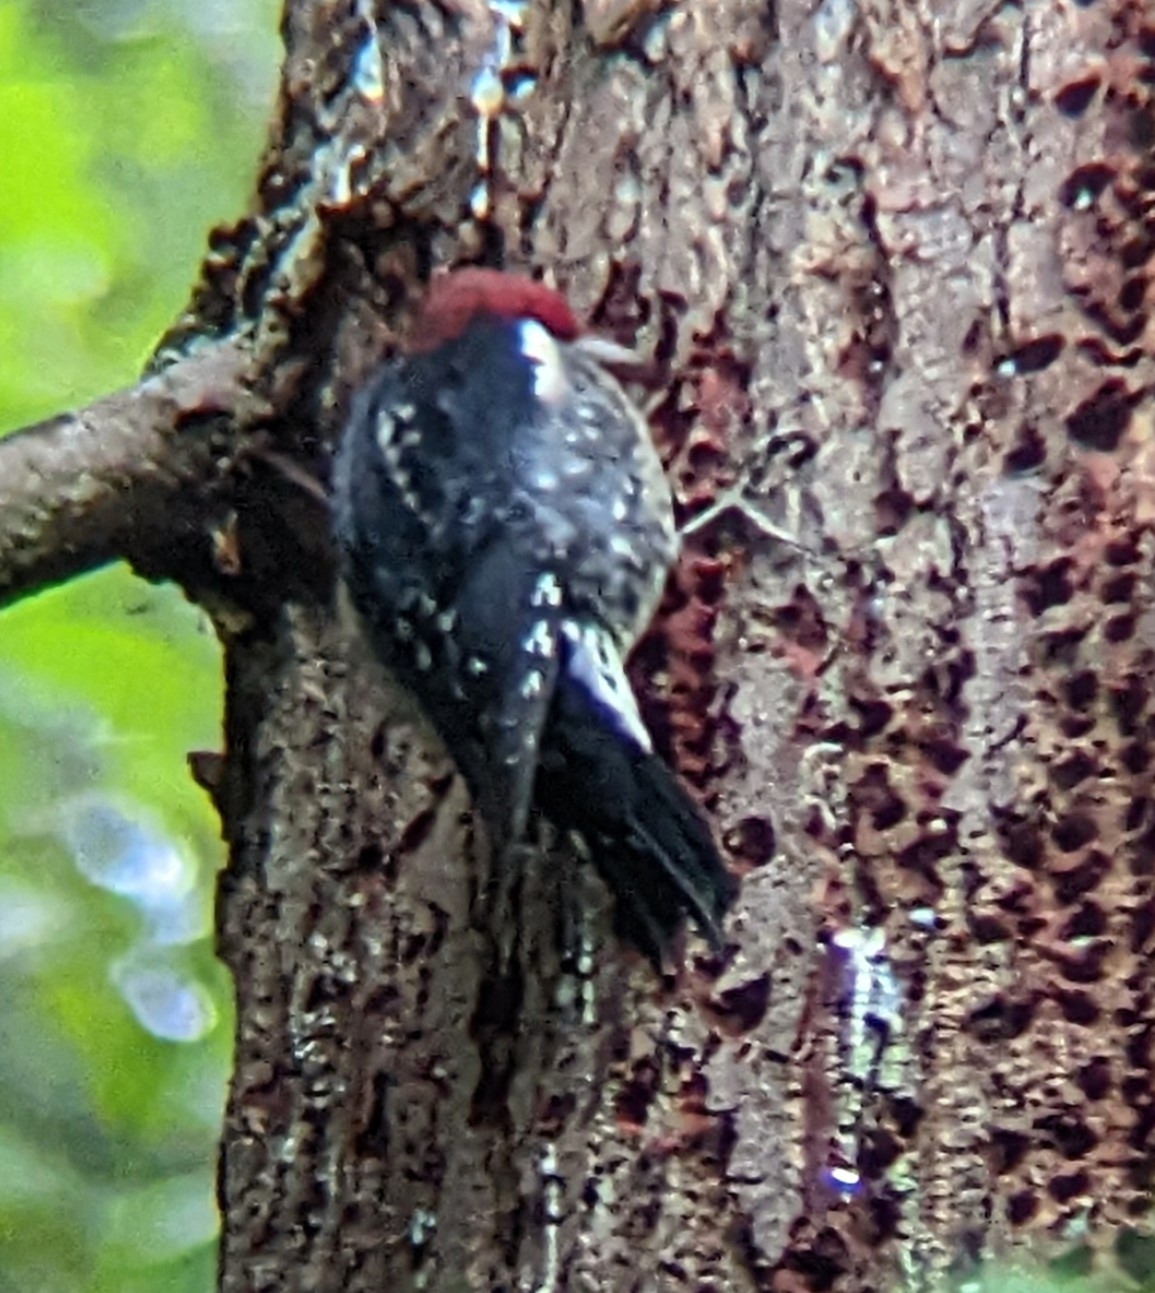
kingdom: Animalia
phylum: Chordata
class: Aves
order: Piciformes
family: Picidae
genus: Sphyrapicus
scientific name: Sphyrapicus ruber
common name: Red-breasted sapsucker
